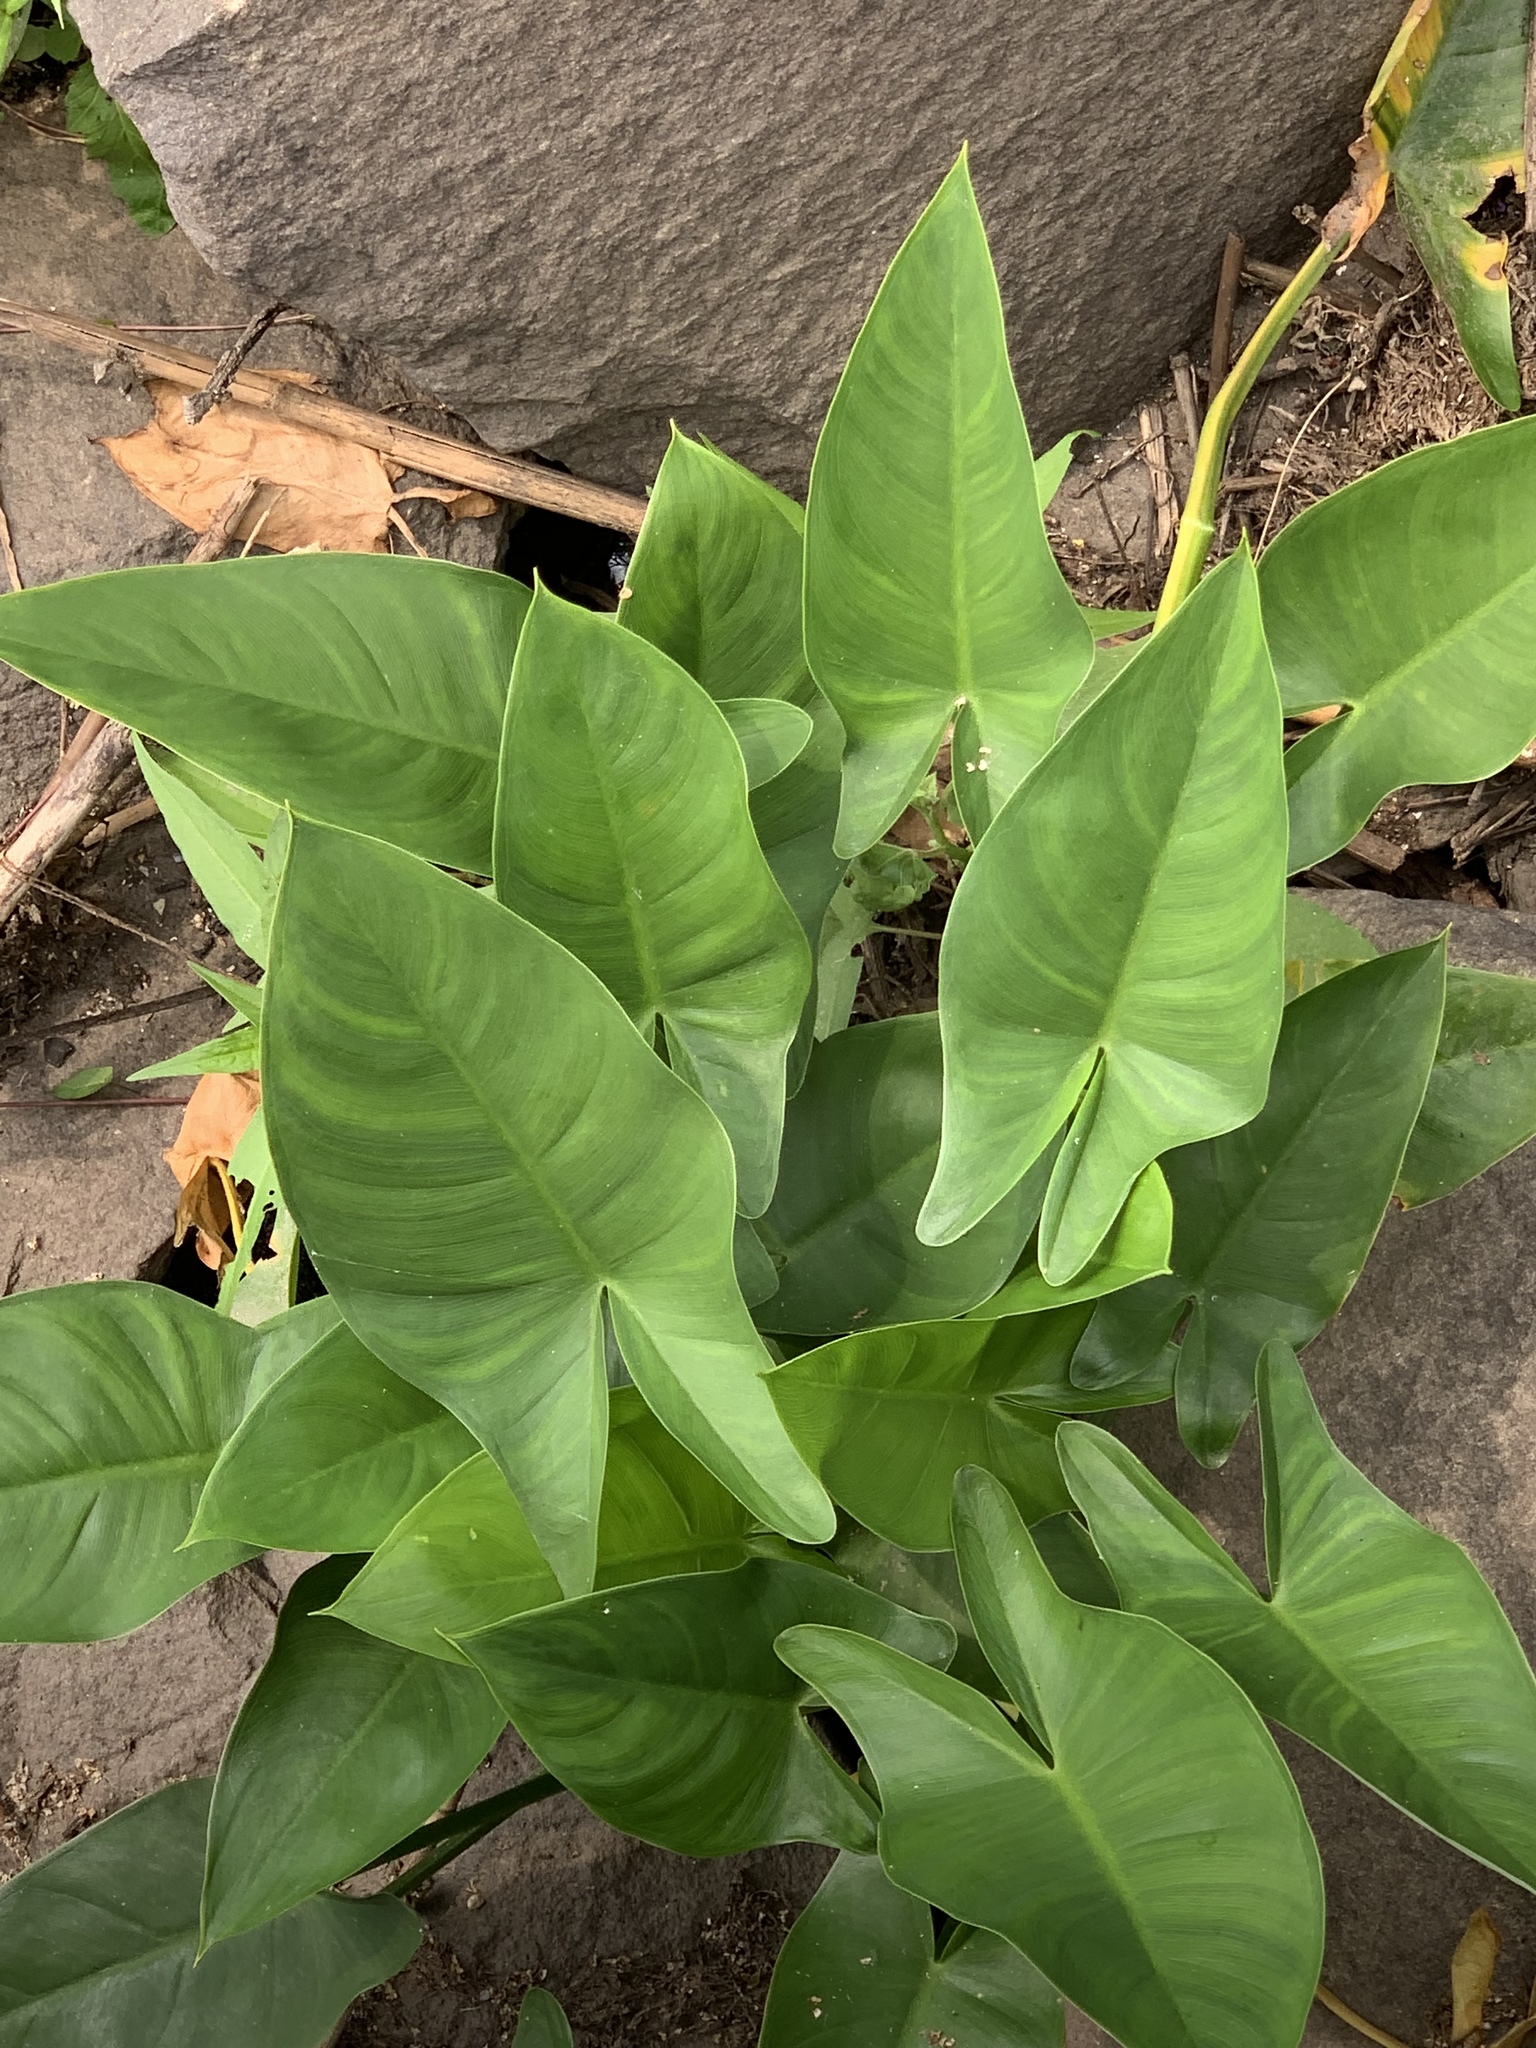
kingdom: Plantae
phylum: Tracheophyta
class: Liliopsida
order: Alismatales
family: Araceae
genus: Peltandra
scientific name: Peltandra virginica
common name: Arrow arum
